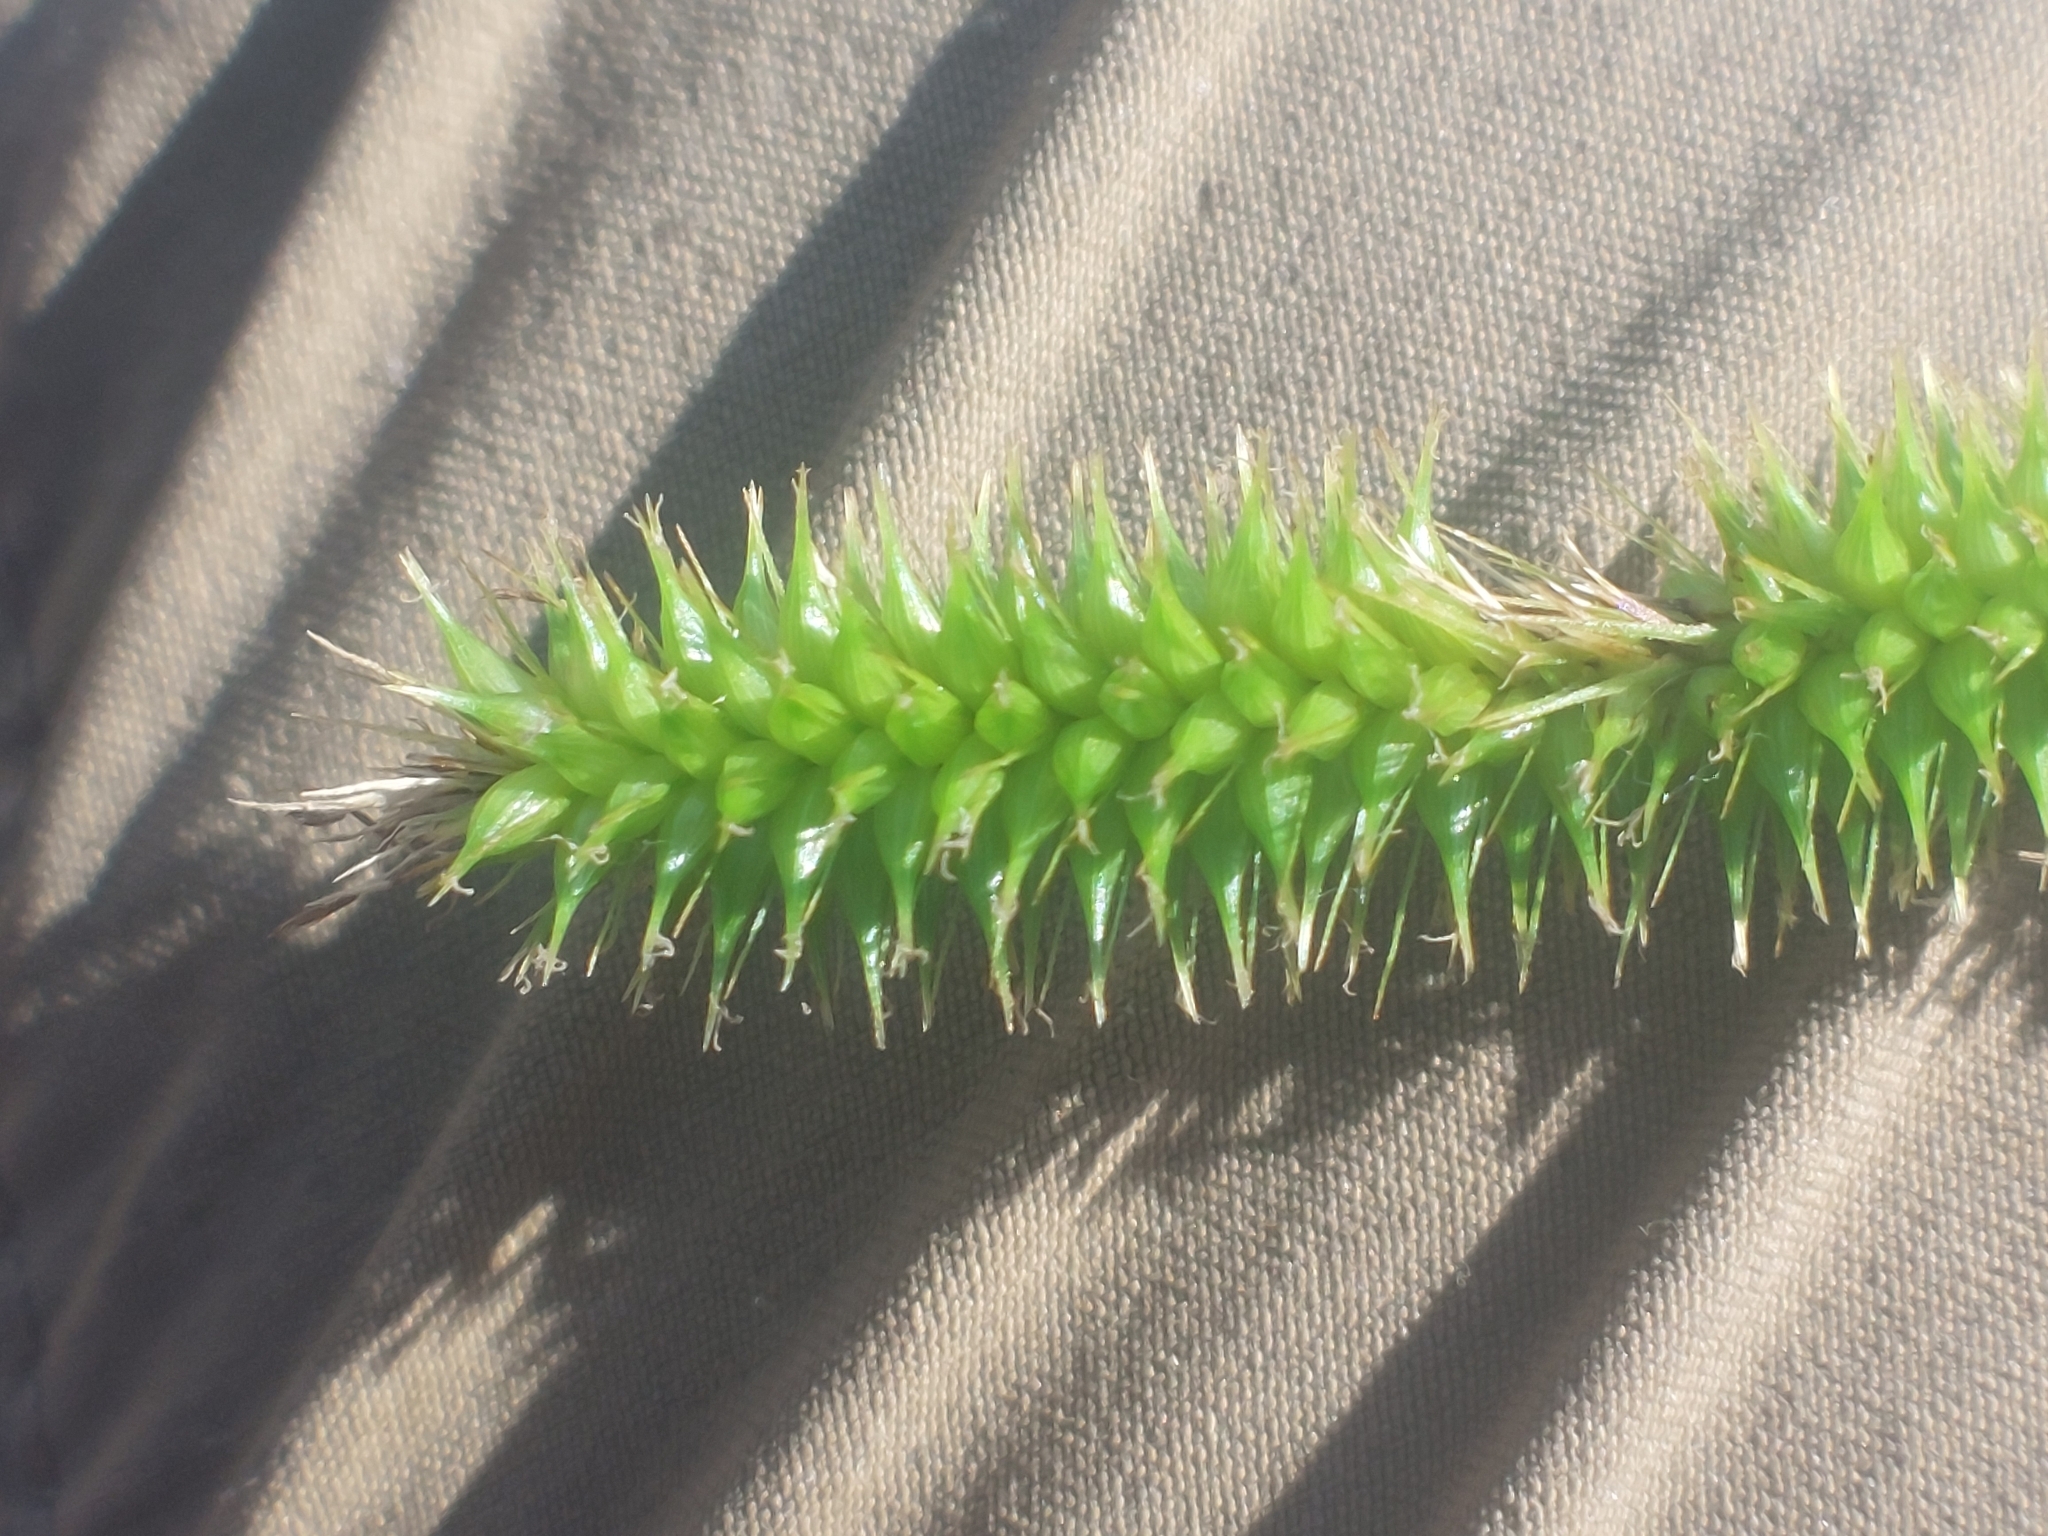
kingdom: Plantae
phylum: Tracheophyta
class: Liliopsida
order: Poales
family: Cyperaceae
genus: Carex
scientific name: Carex pseudocyperus
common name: Cyperus sedge
